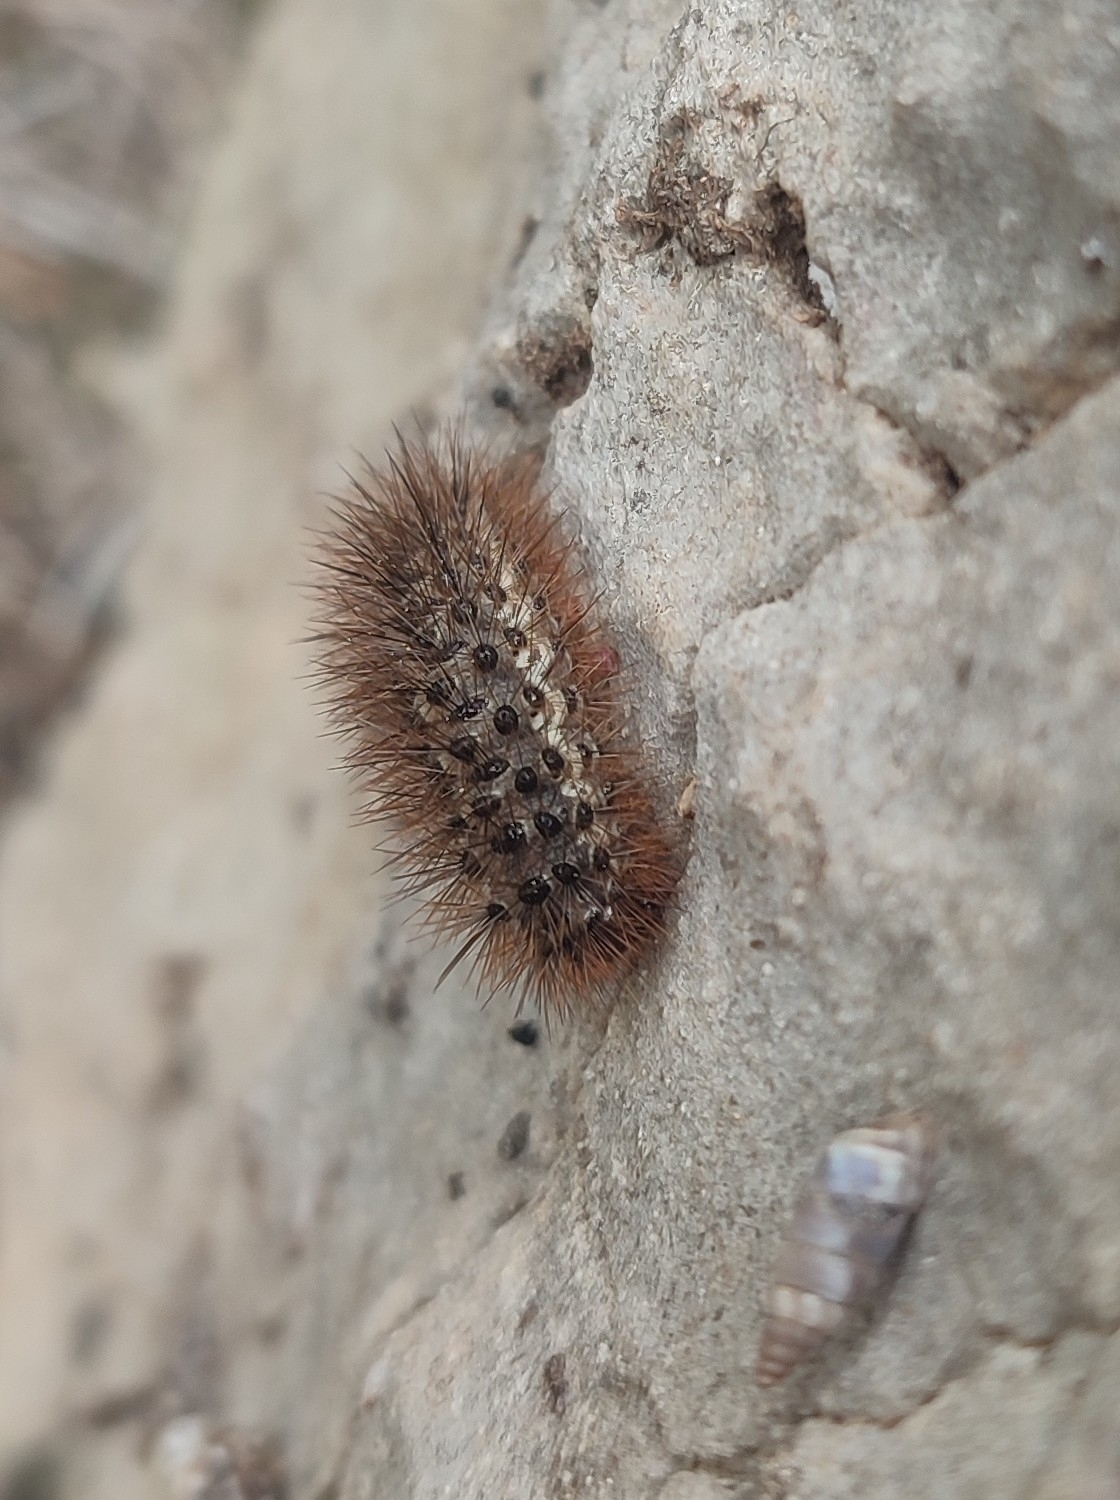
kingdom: Animalia
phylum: Arthropoda
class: Insecta
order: Lepidoptera
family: Erebidae
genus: Cymbalophora
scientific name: Cymbalophora pudica
